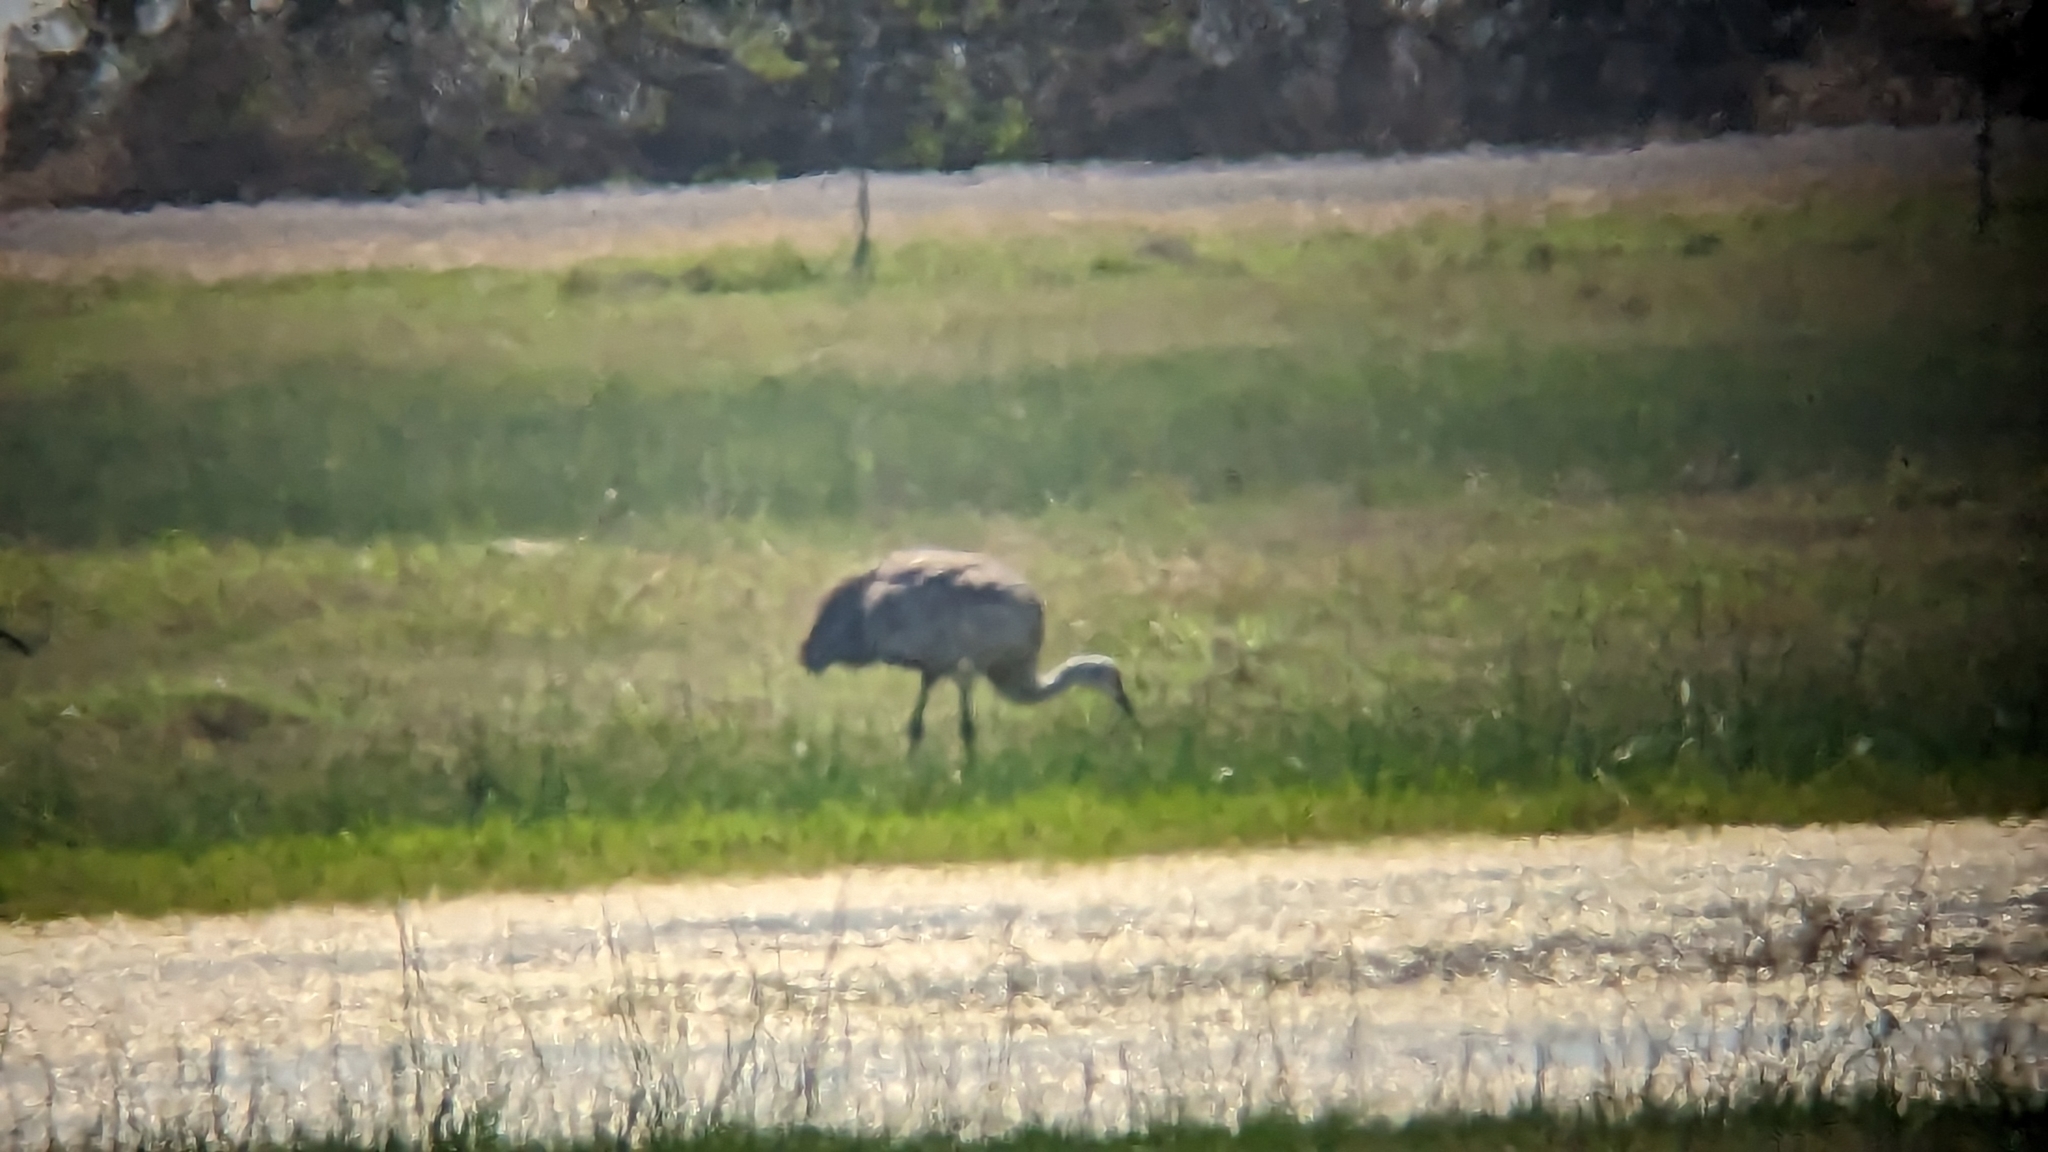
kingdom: Animalia
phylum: Chordata
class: Aves
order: Gruiformes
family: Gruidae
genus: Grus
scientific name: Grus canadensis
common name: Sandhill crane
